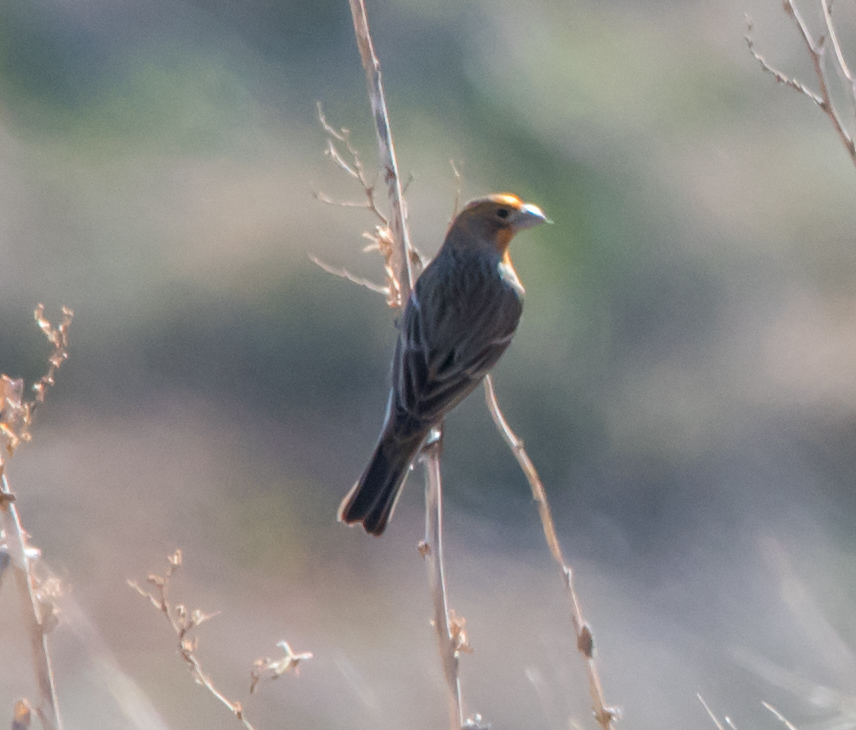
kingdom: Animalia
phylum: Chordata
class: Aves
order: Passeriformes
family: Fringillidae
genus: Haemorhous
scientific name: Haemorhous mexicanus
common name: House finch
